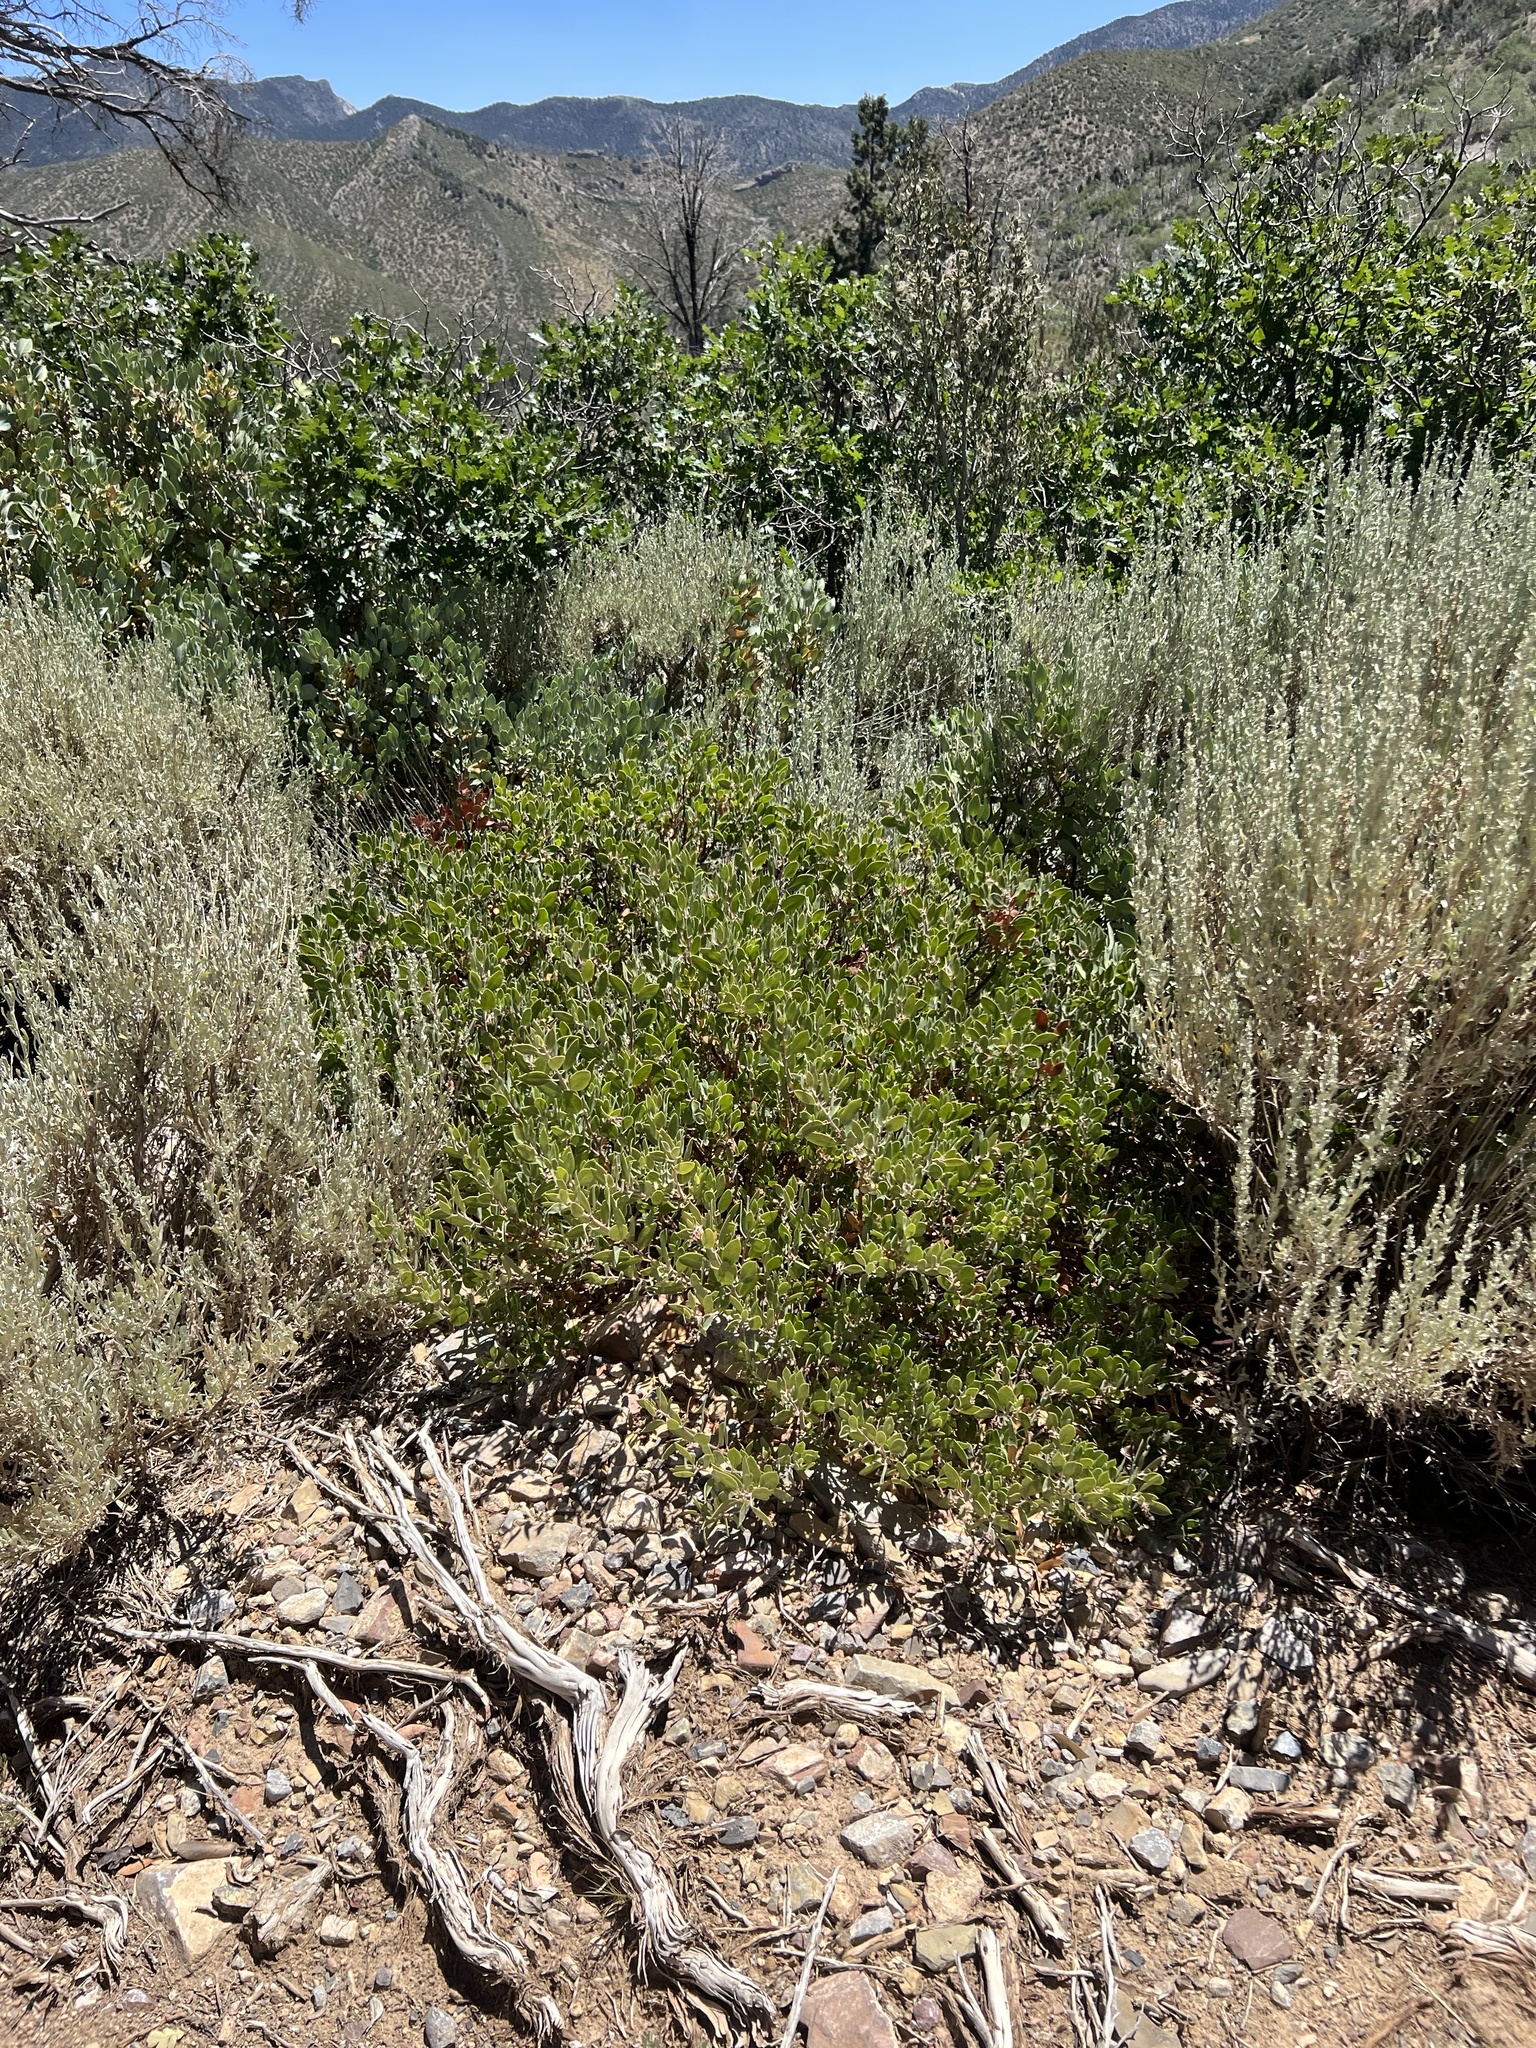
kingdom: Plantae
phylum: Tracheophyta
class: Magnoliopsida
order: Ericales
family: Ericaceae
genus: Arctostaphylos
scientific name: Arctostaphylos pungens
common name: Mexican manzanita
